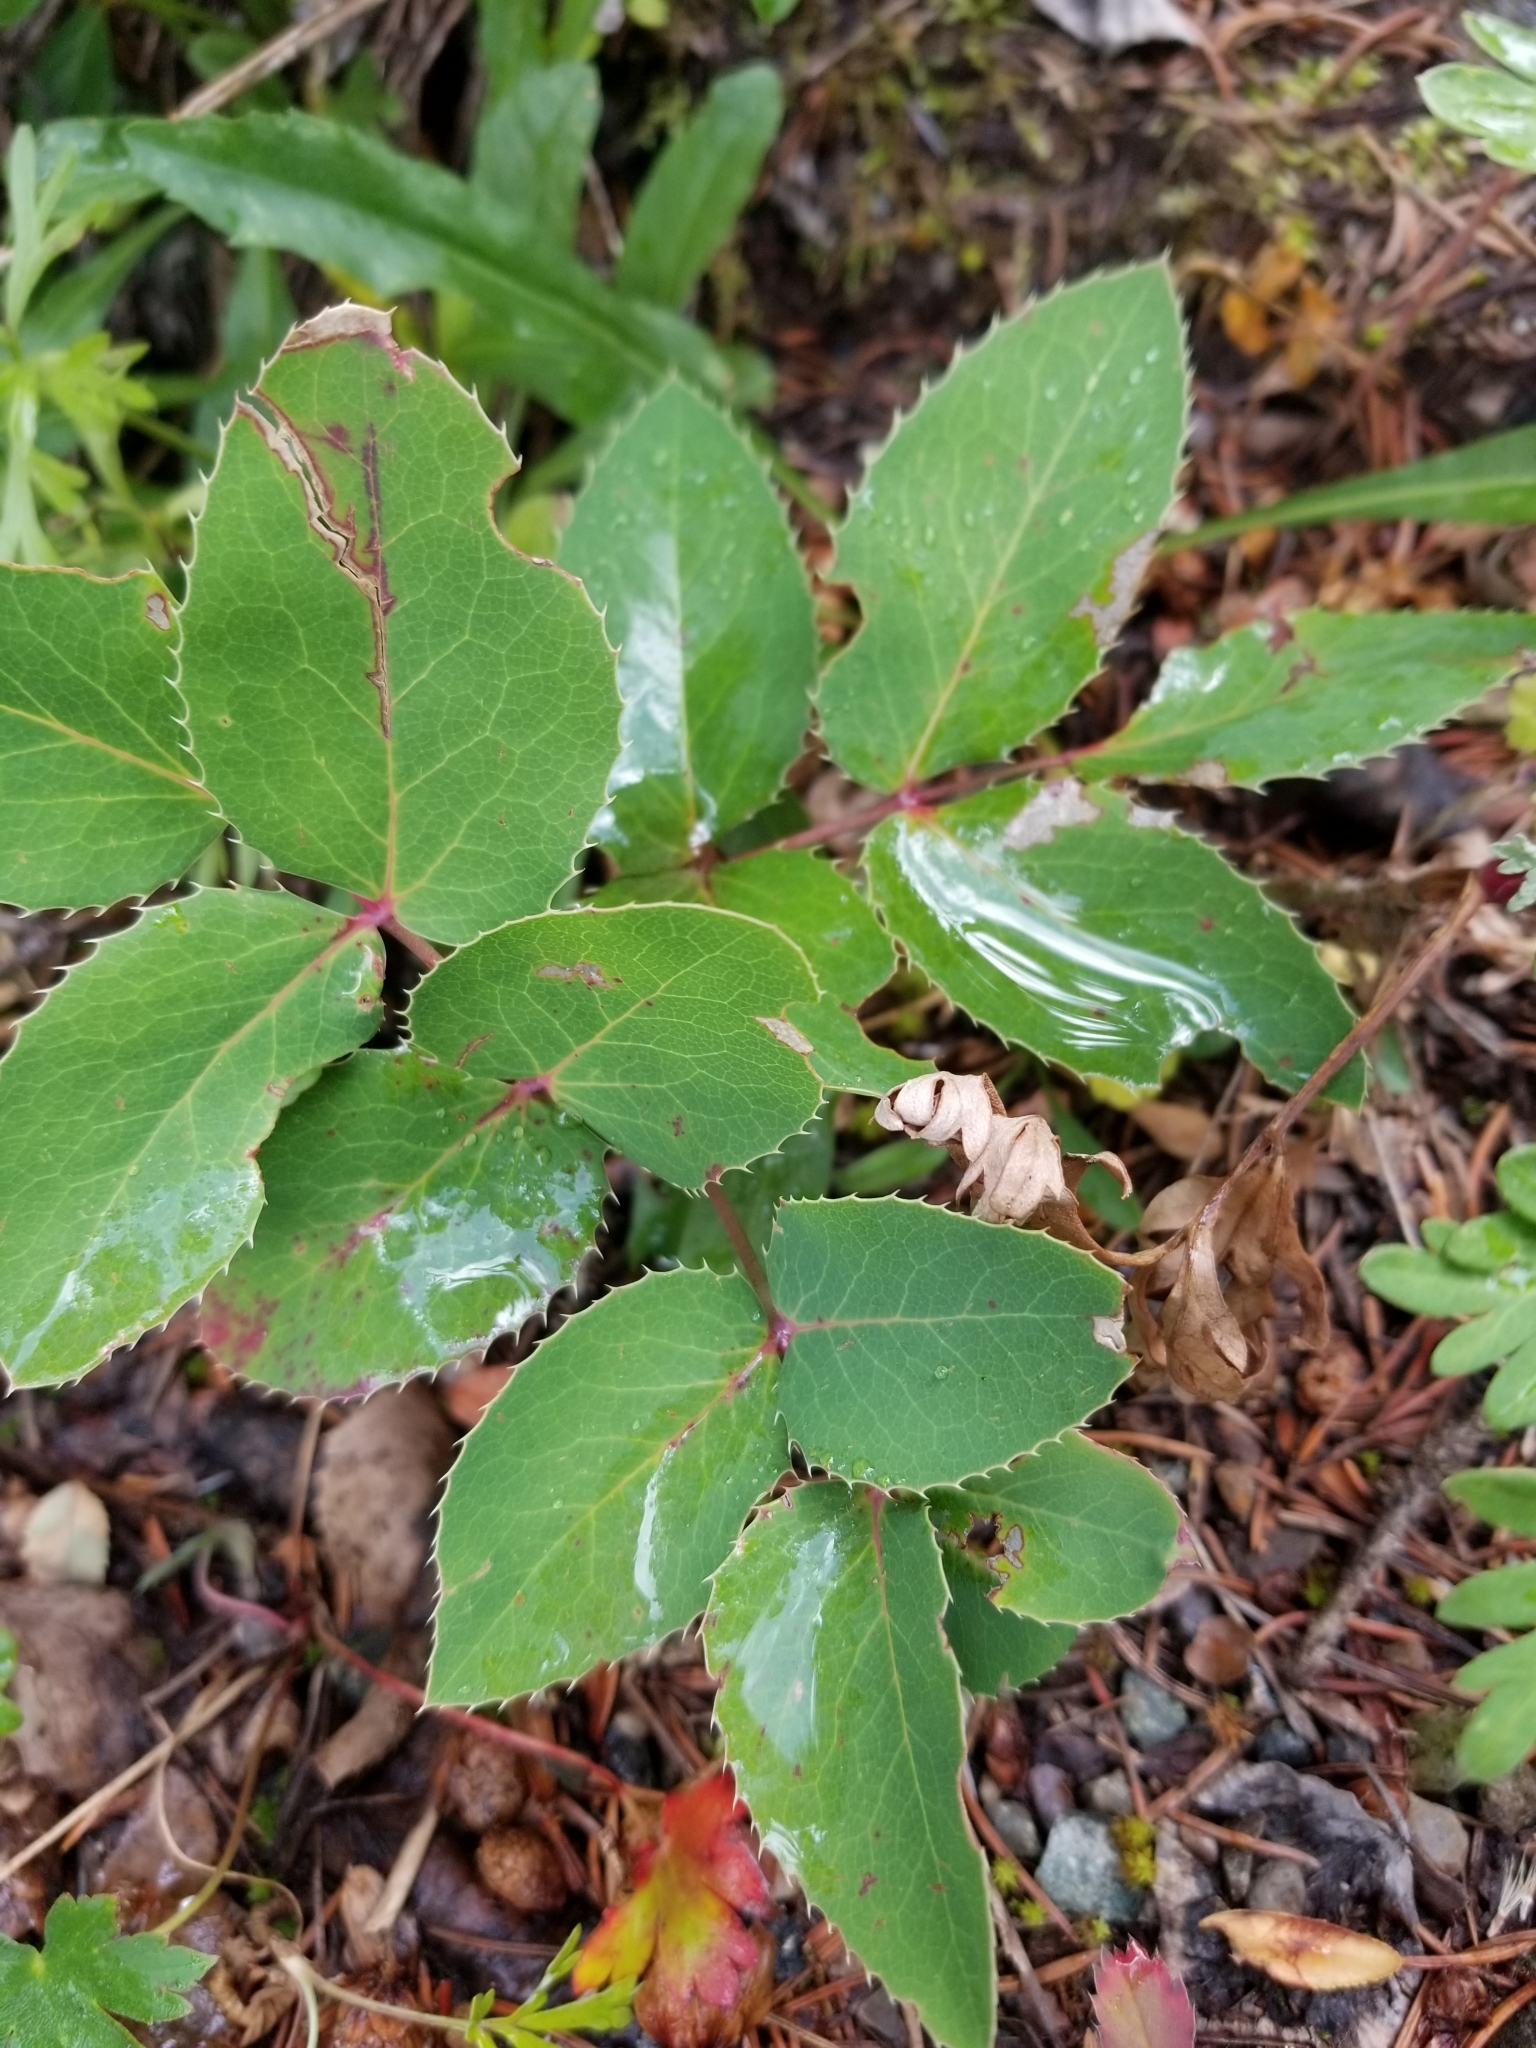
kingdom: Plantae
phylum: Tracheophyta
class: Magnoliopsida
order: Ranunculales
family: Berberidaceae
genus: Mahonia
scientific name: Mahonia repens
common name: Creeping oregon-grape
